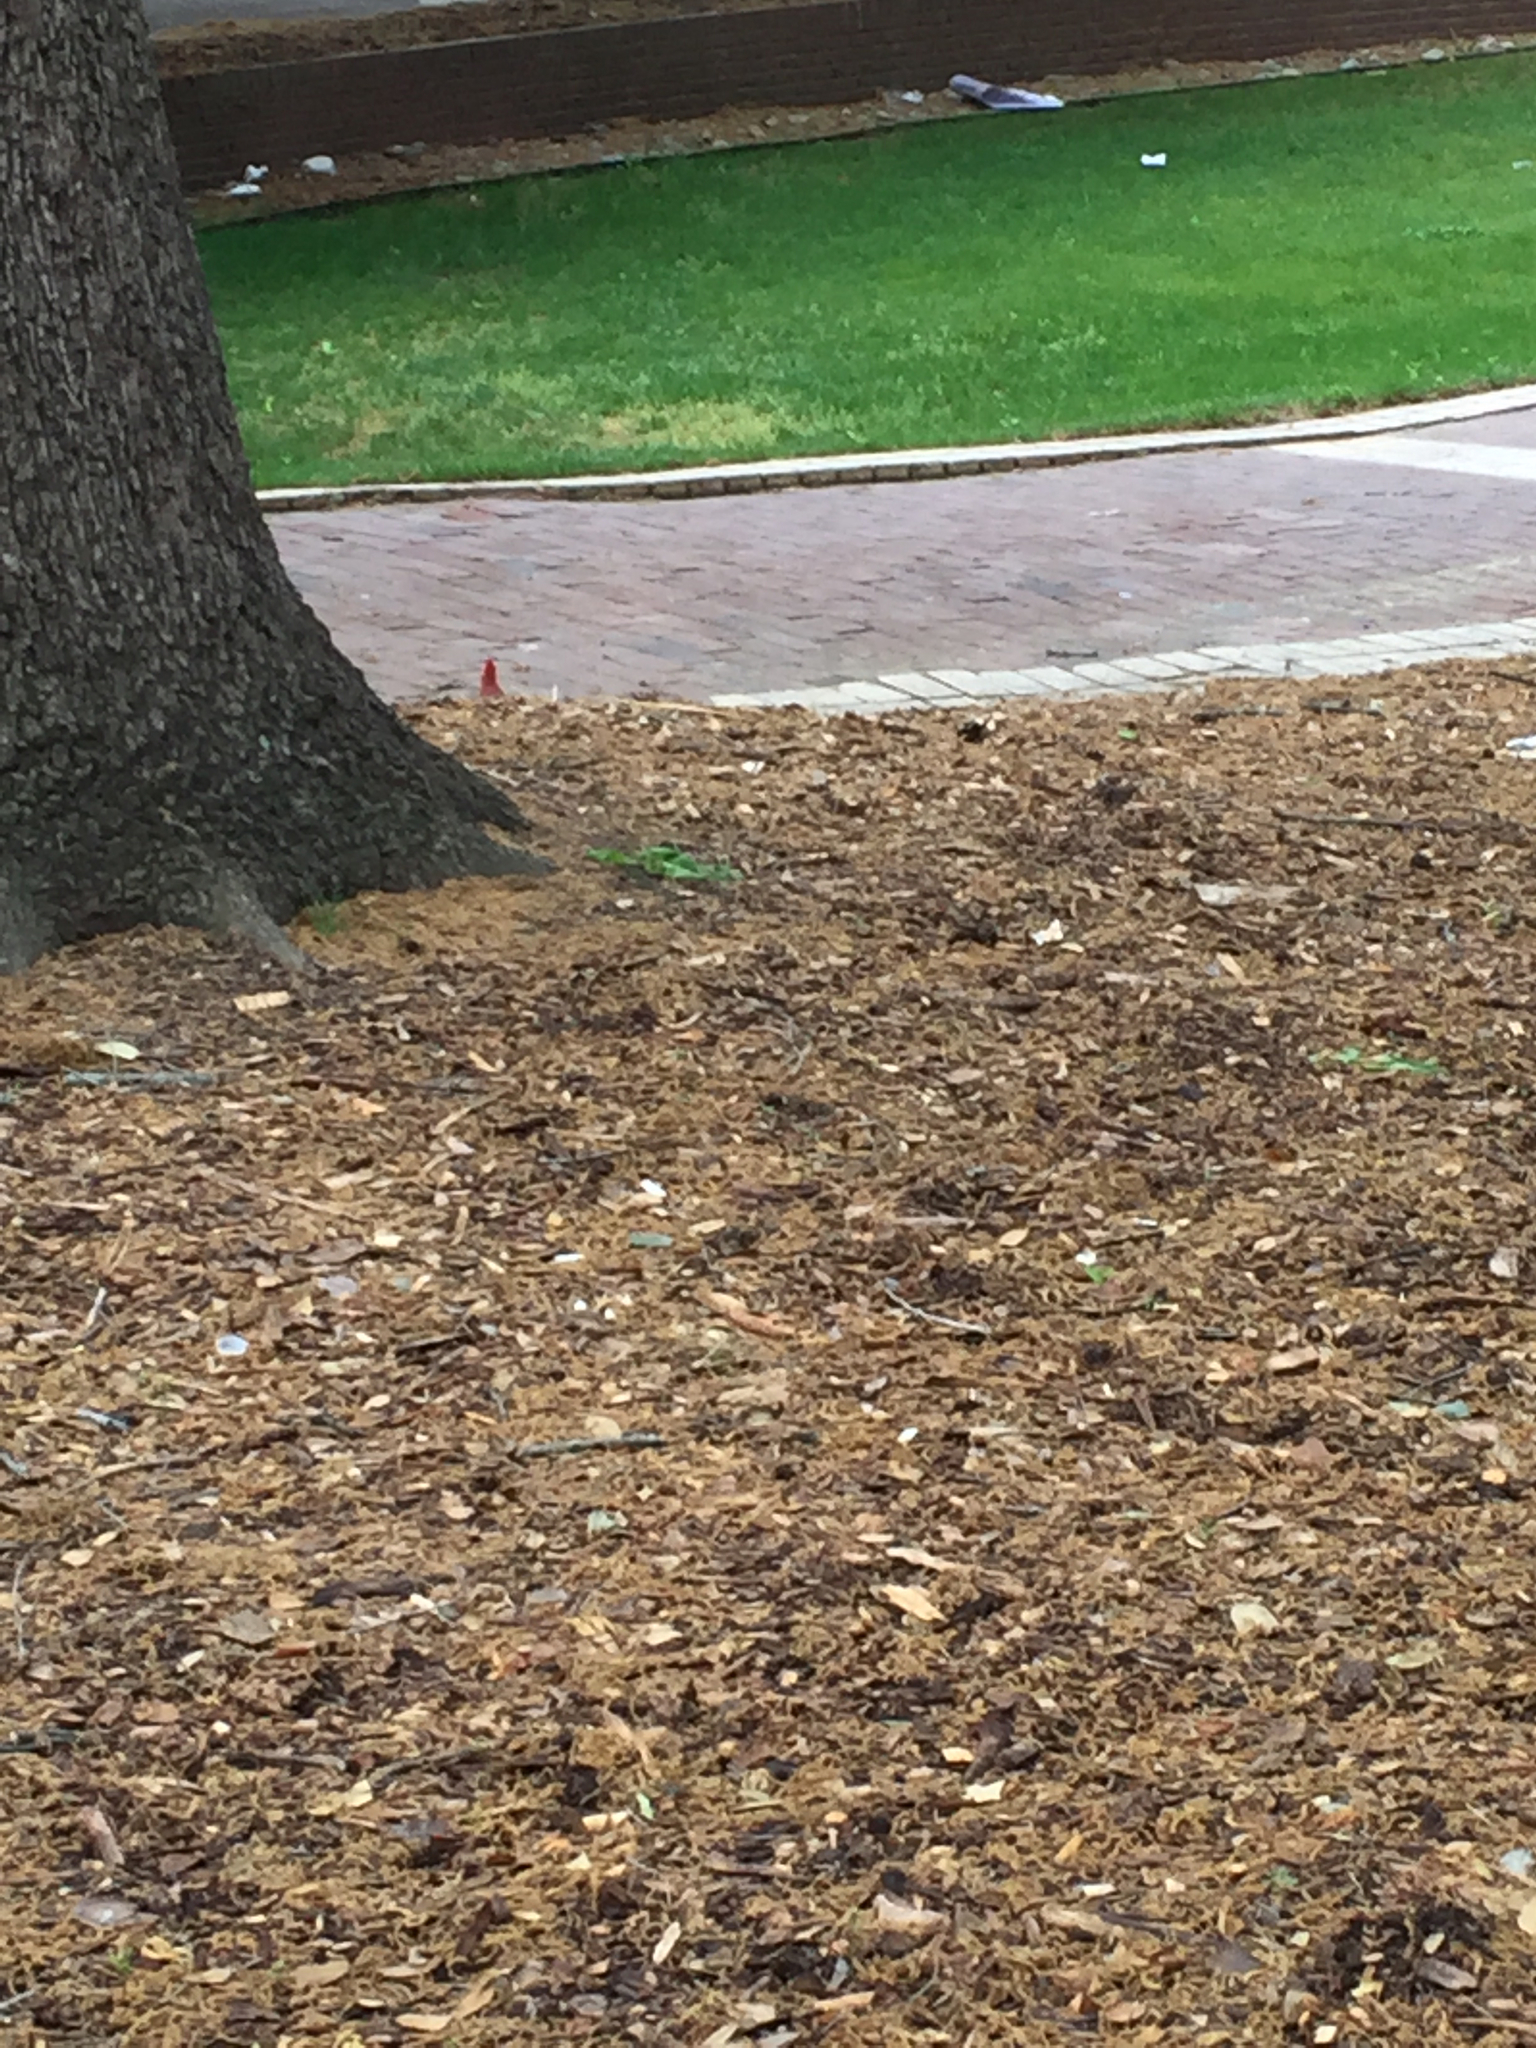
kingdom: Animalia
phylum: Chordata
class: Aves
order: Passeriformes
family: Cardinalidae
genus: Cardinalis
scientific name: Cardinalis cardinalis
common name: Northern cardinal
